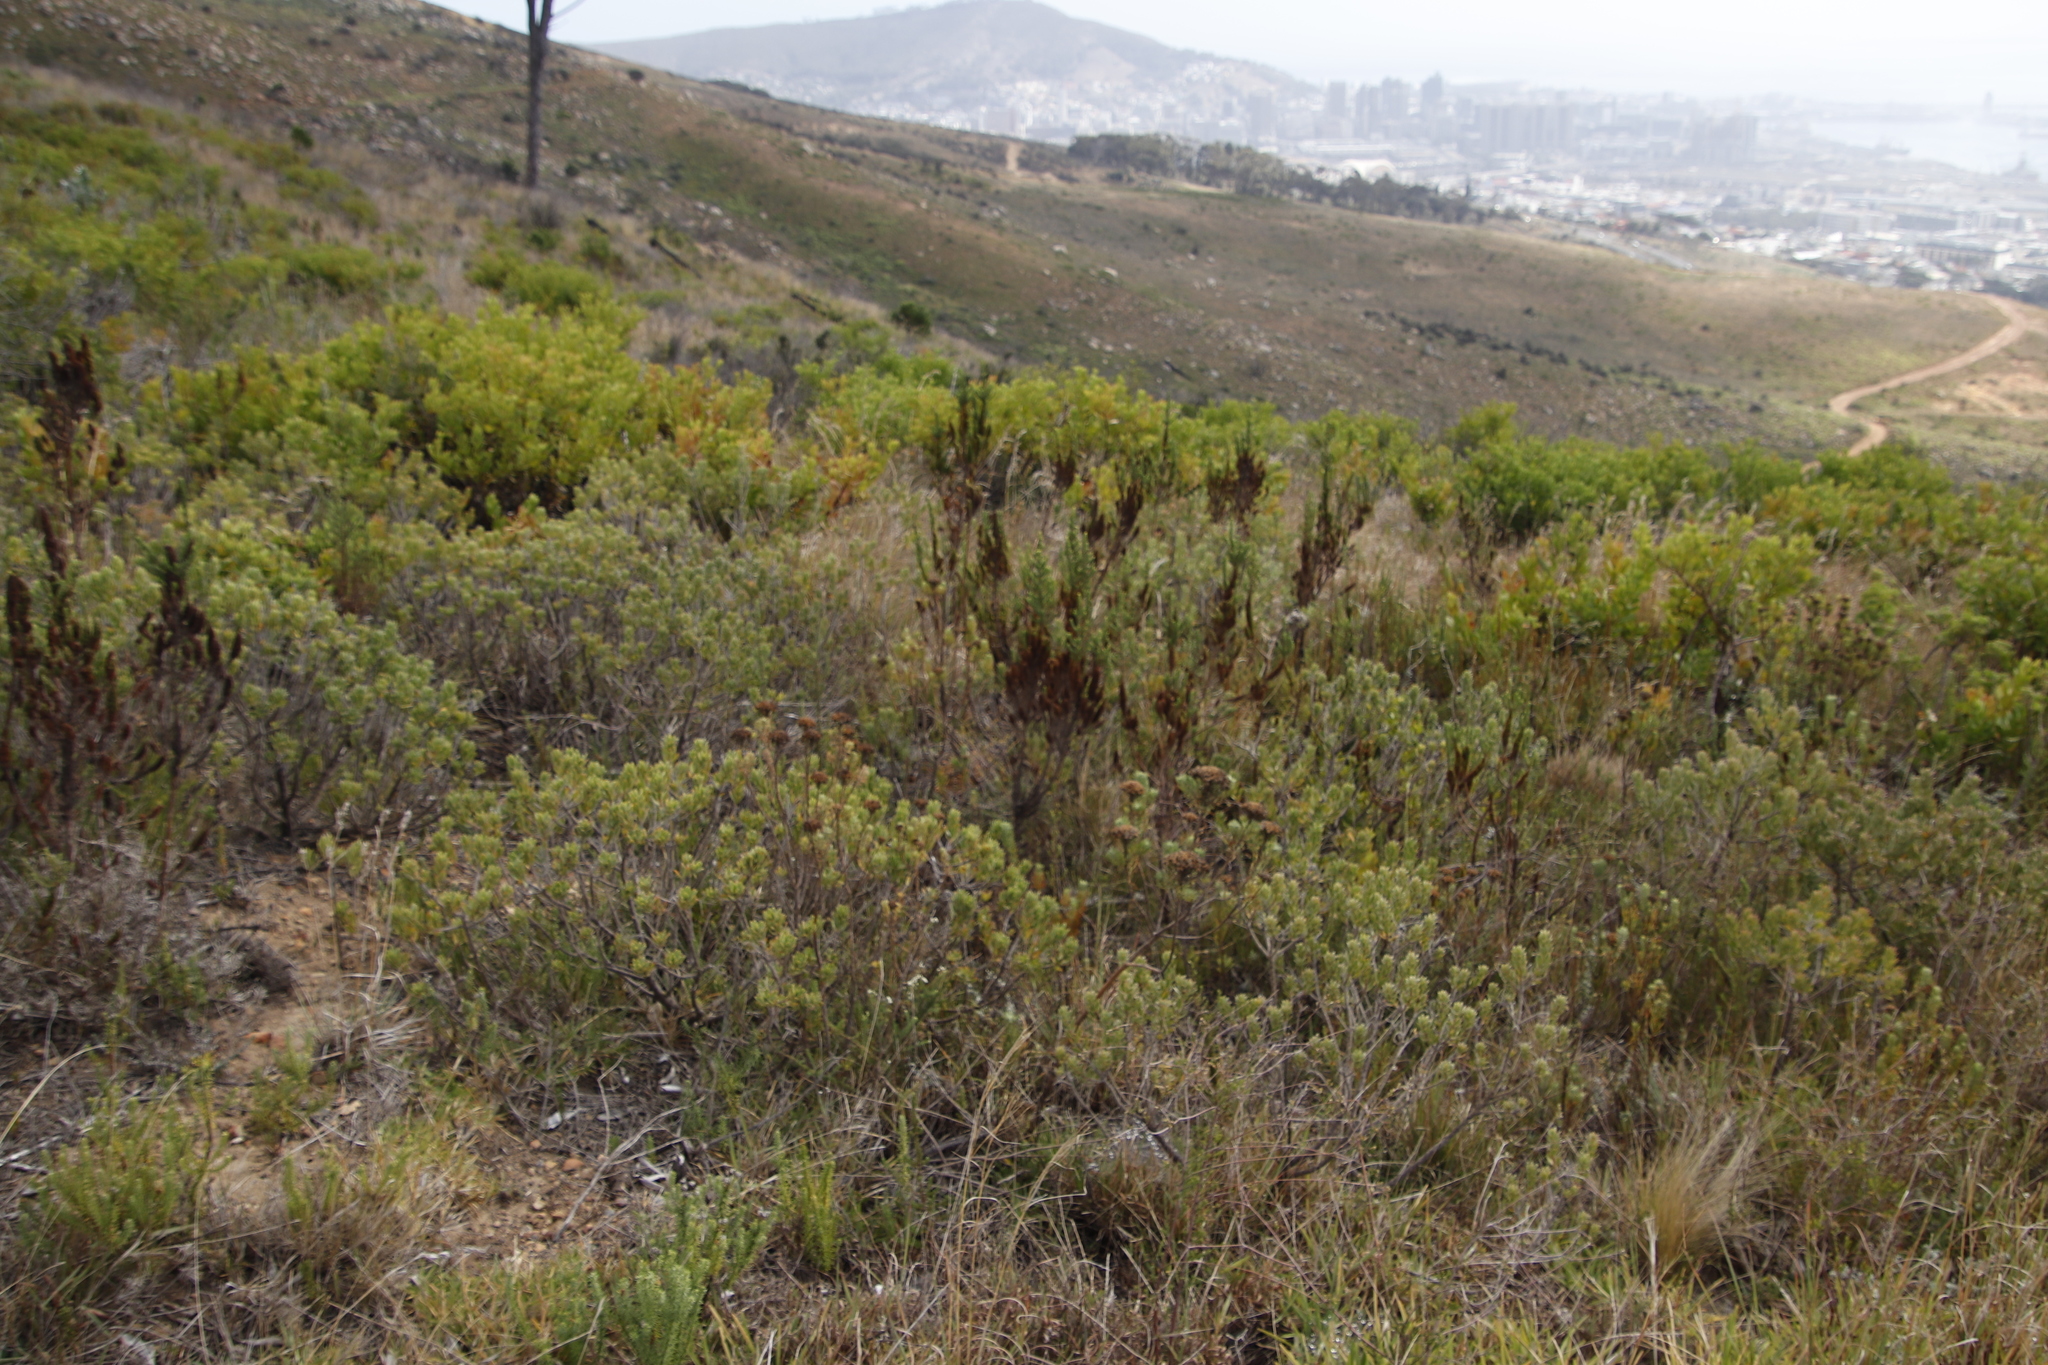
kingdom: Plantae
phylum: Tracheophyta
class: Magnoliopsida
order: Gentianales
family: Rubiaceae
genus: Anthospermum
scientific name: Anthospermum aethiopicum
